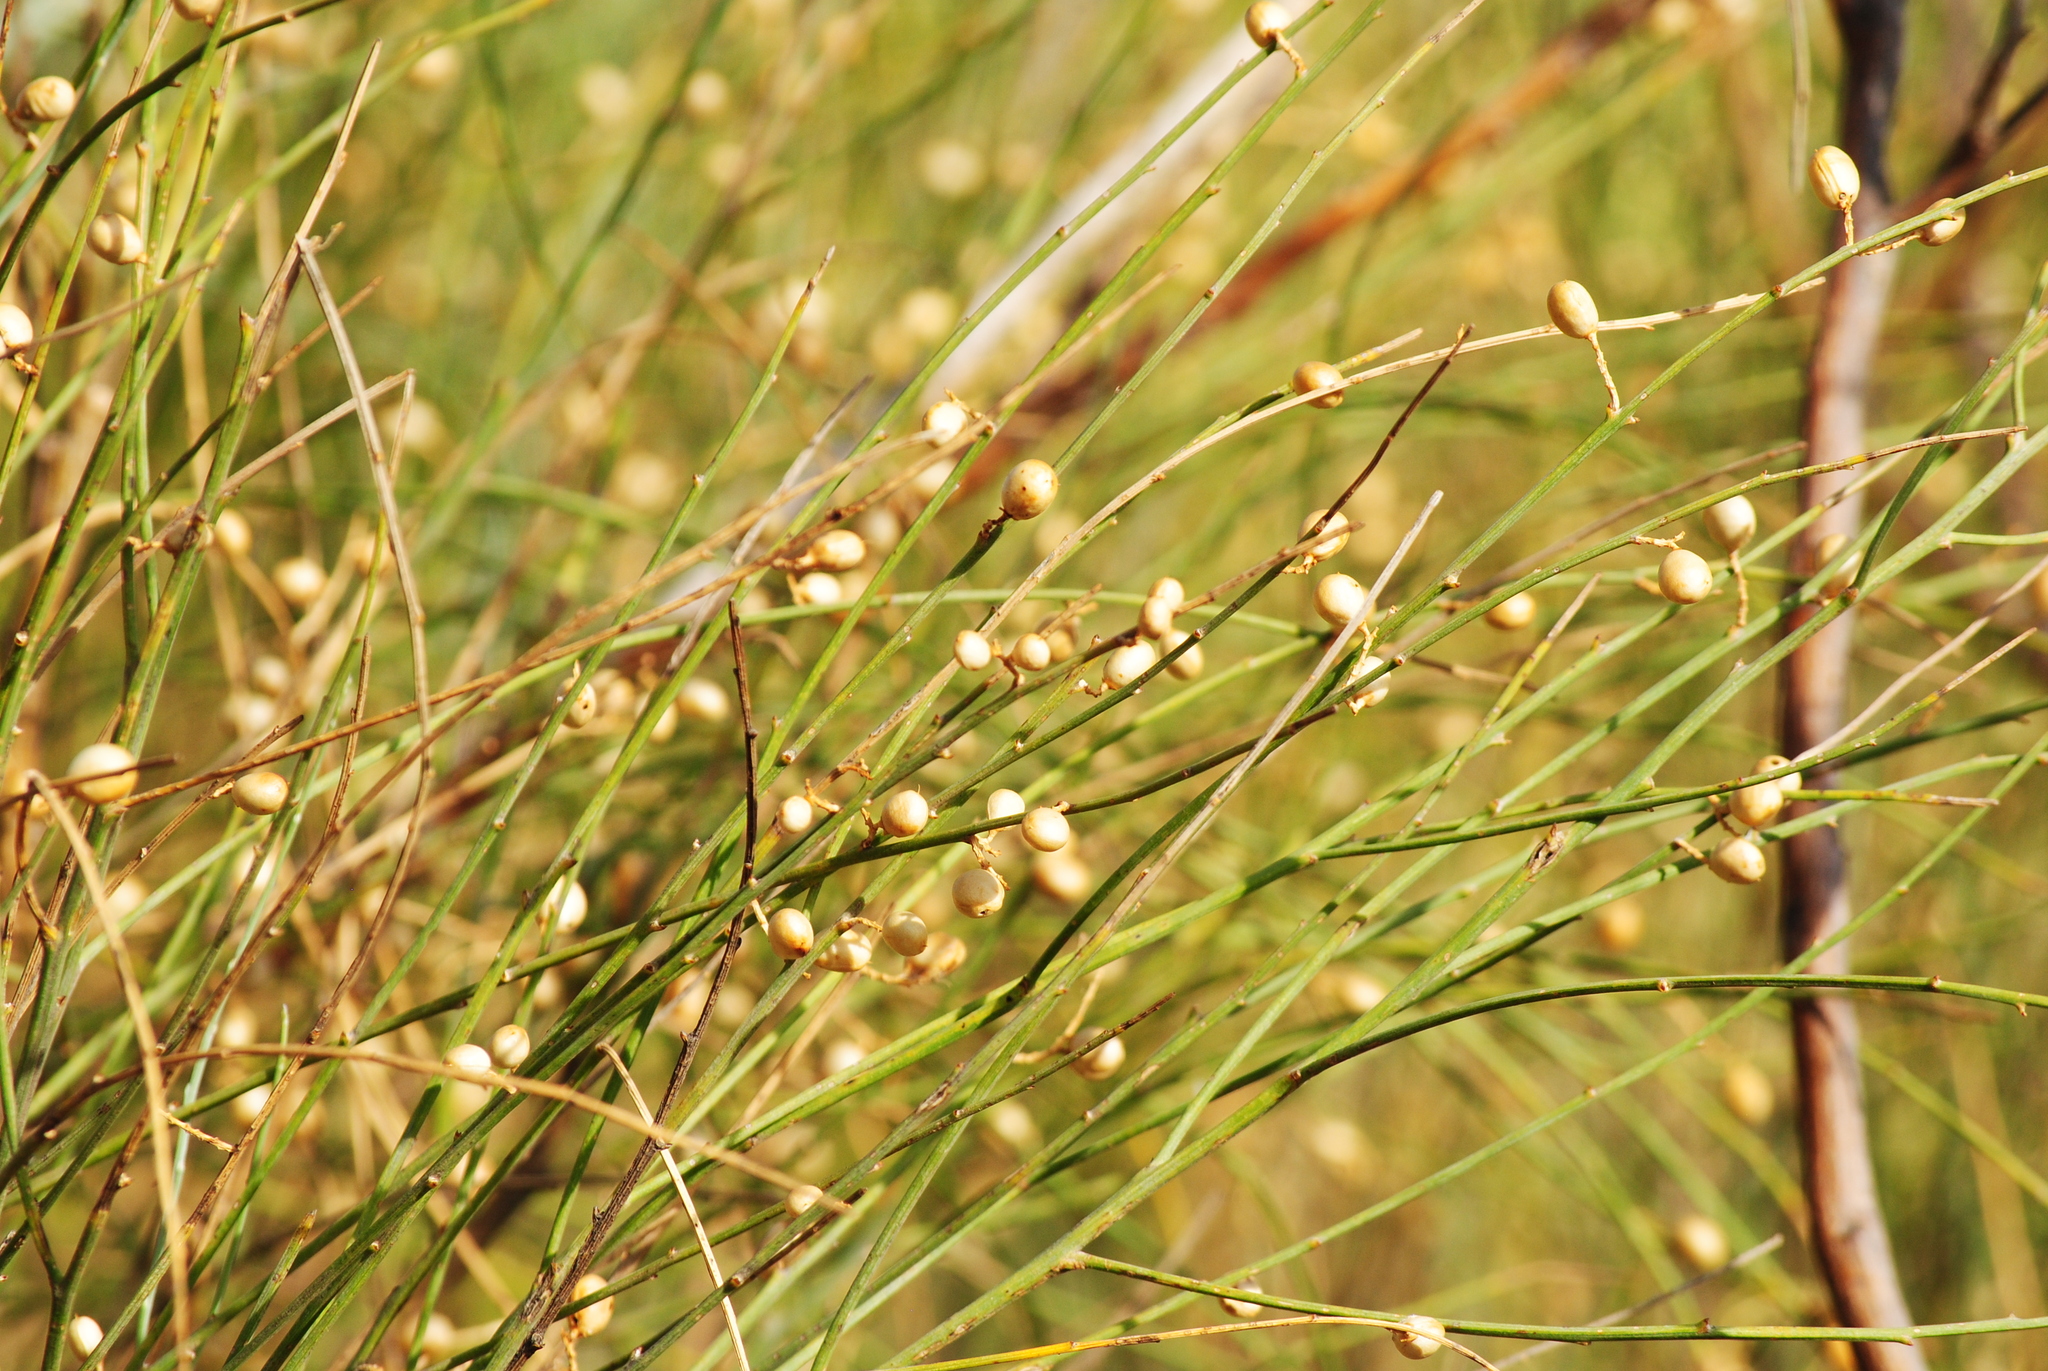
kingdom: Plantae
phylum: Tracheophyta
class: Magnoliopsida
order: Fabales
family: Fabaceae
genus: Retama
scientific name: Retama sphaerocarpa
